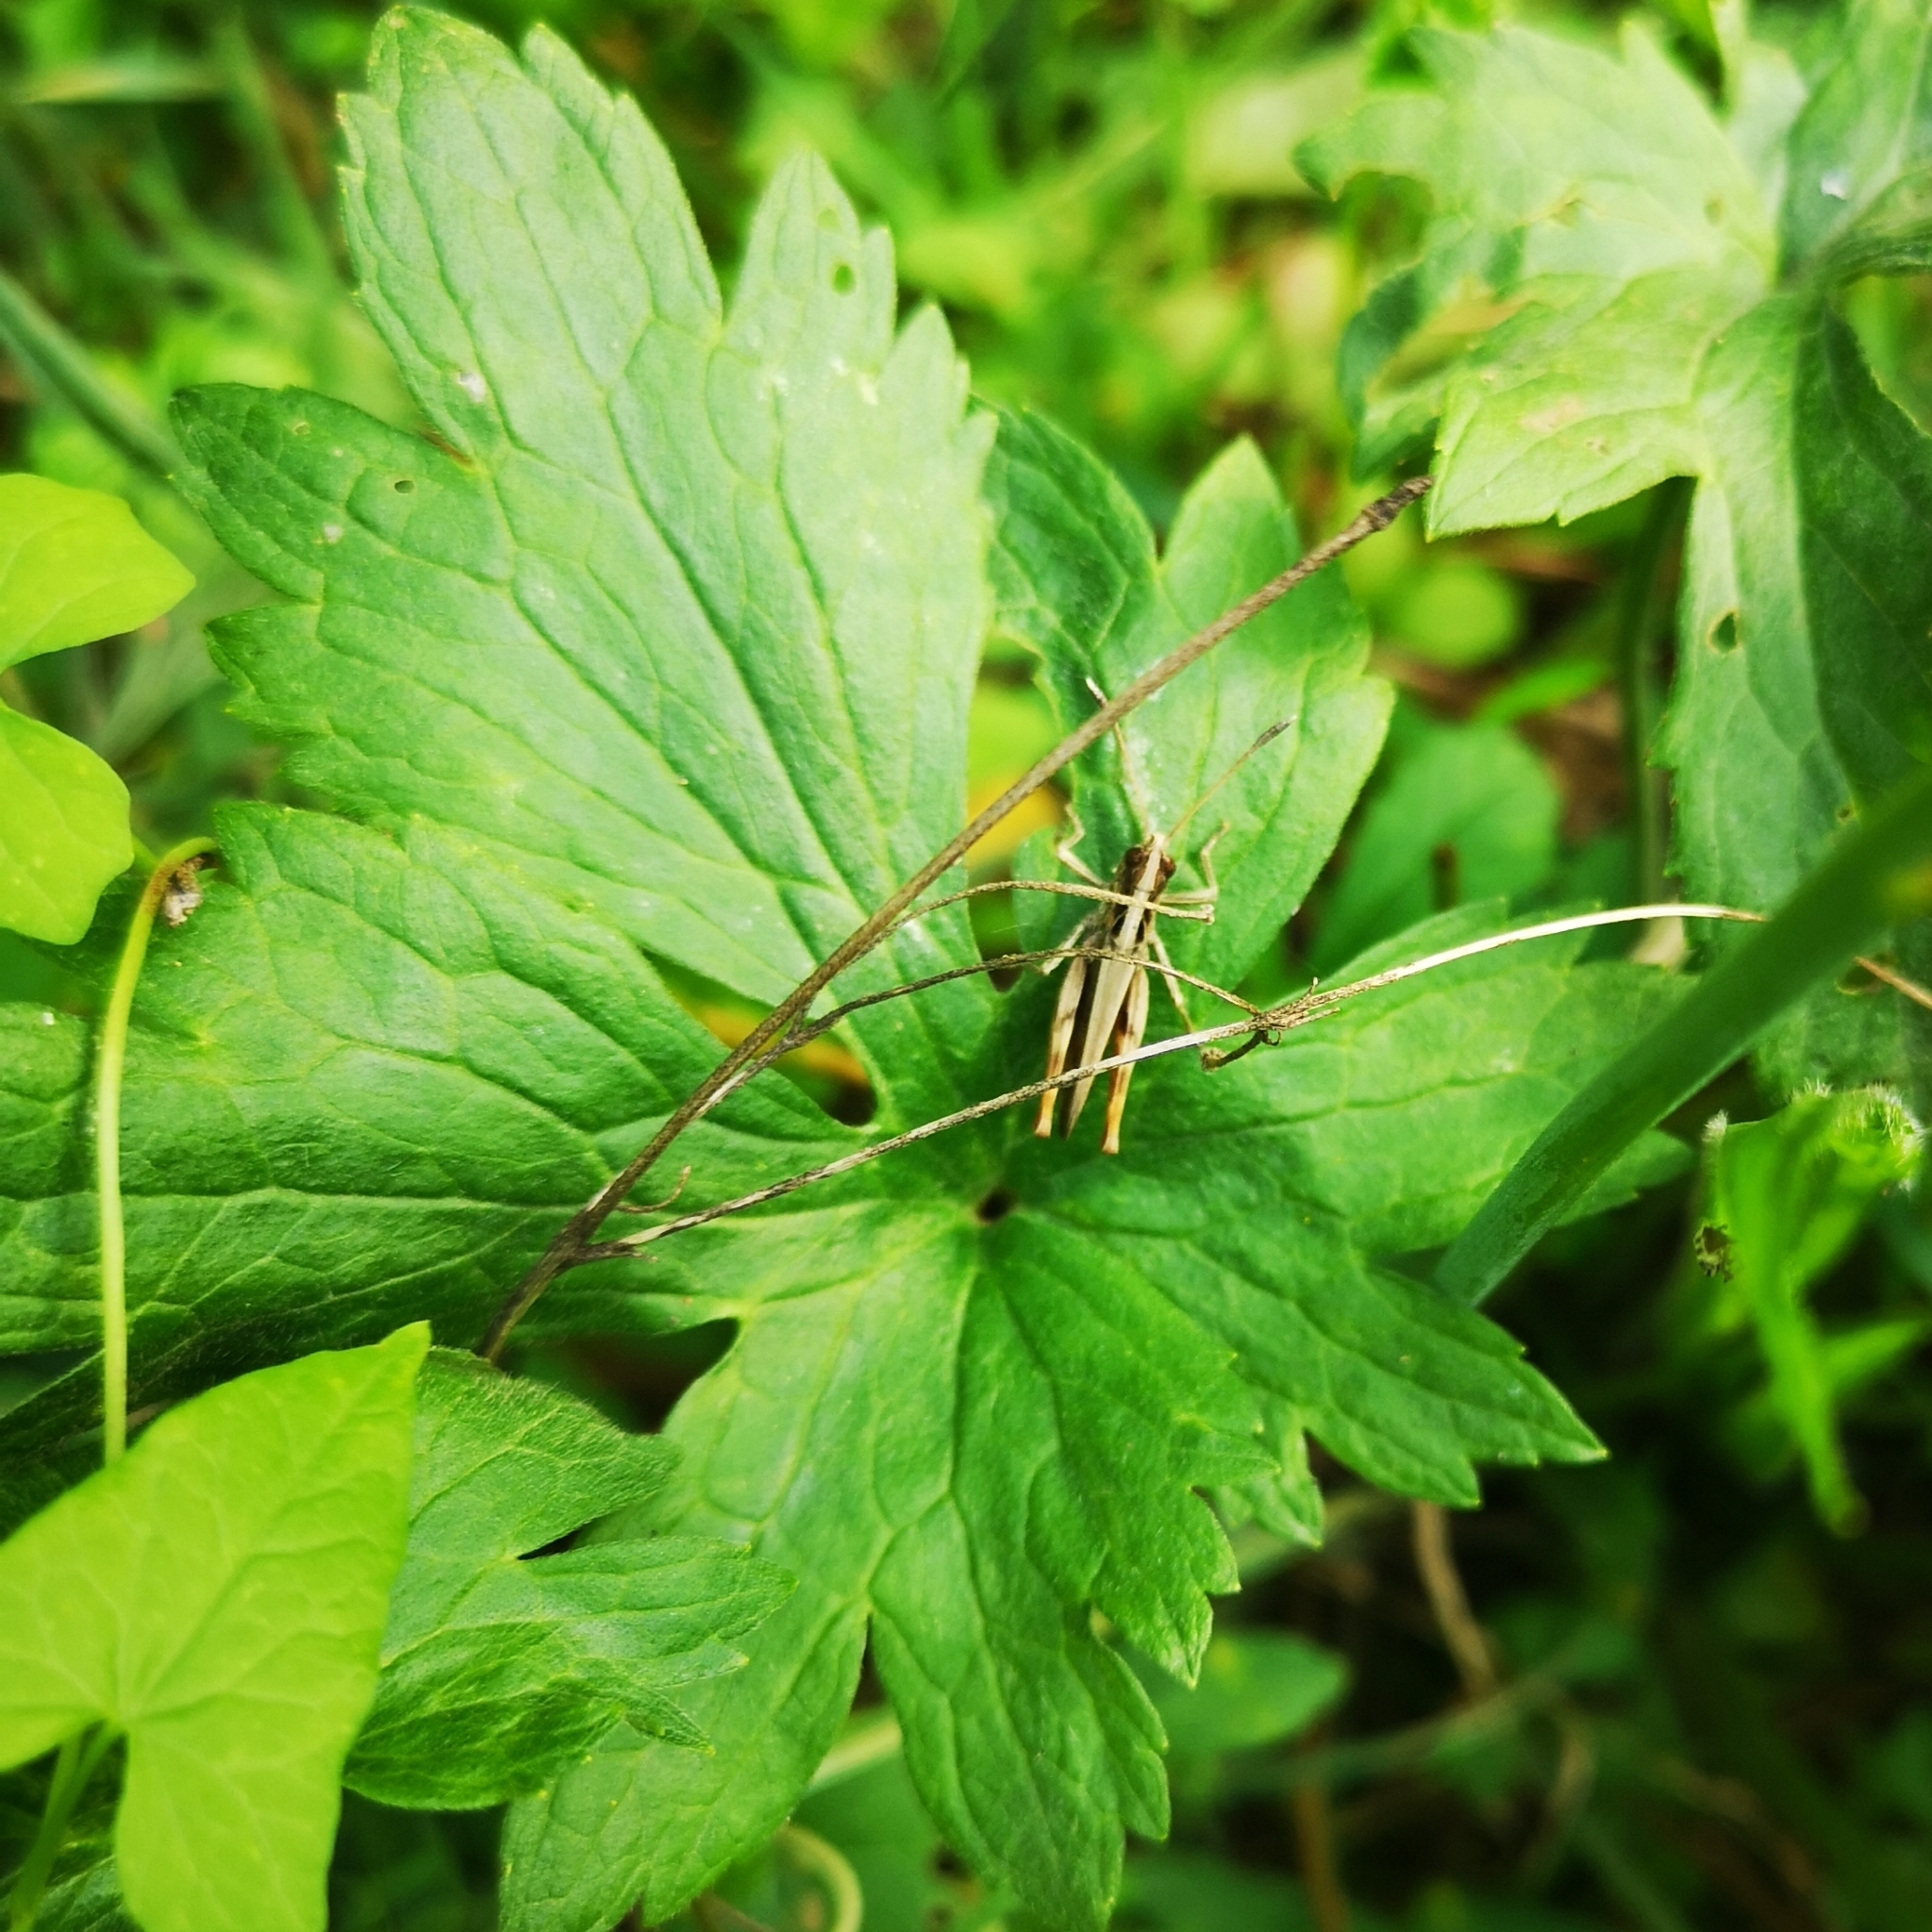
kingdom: Animalia
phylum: Arthropoda
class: Insecta
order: Orthoptera
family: Acrididae
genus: Gomphocerippus
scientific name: Gomphocerippus rufus
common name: Rufous grasshopper
